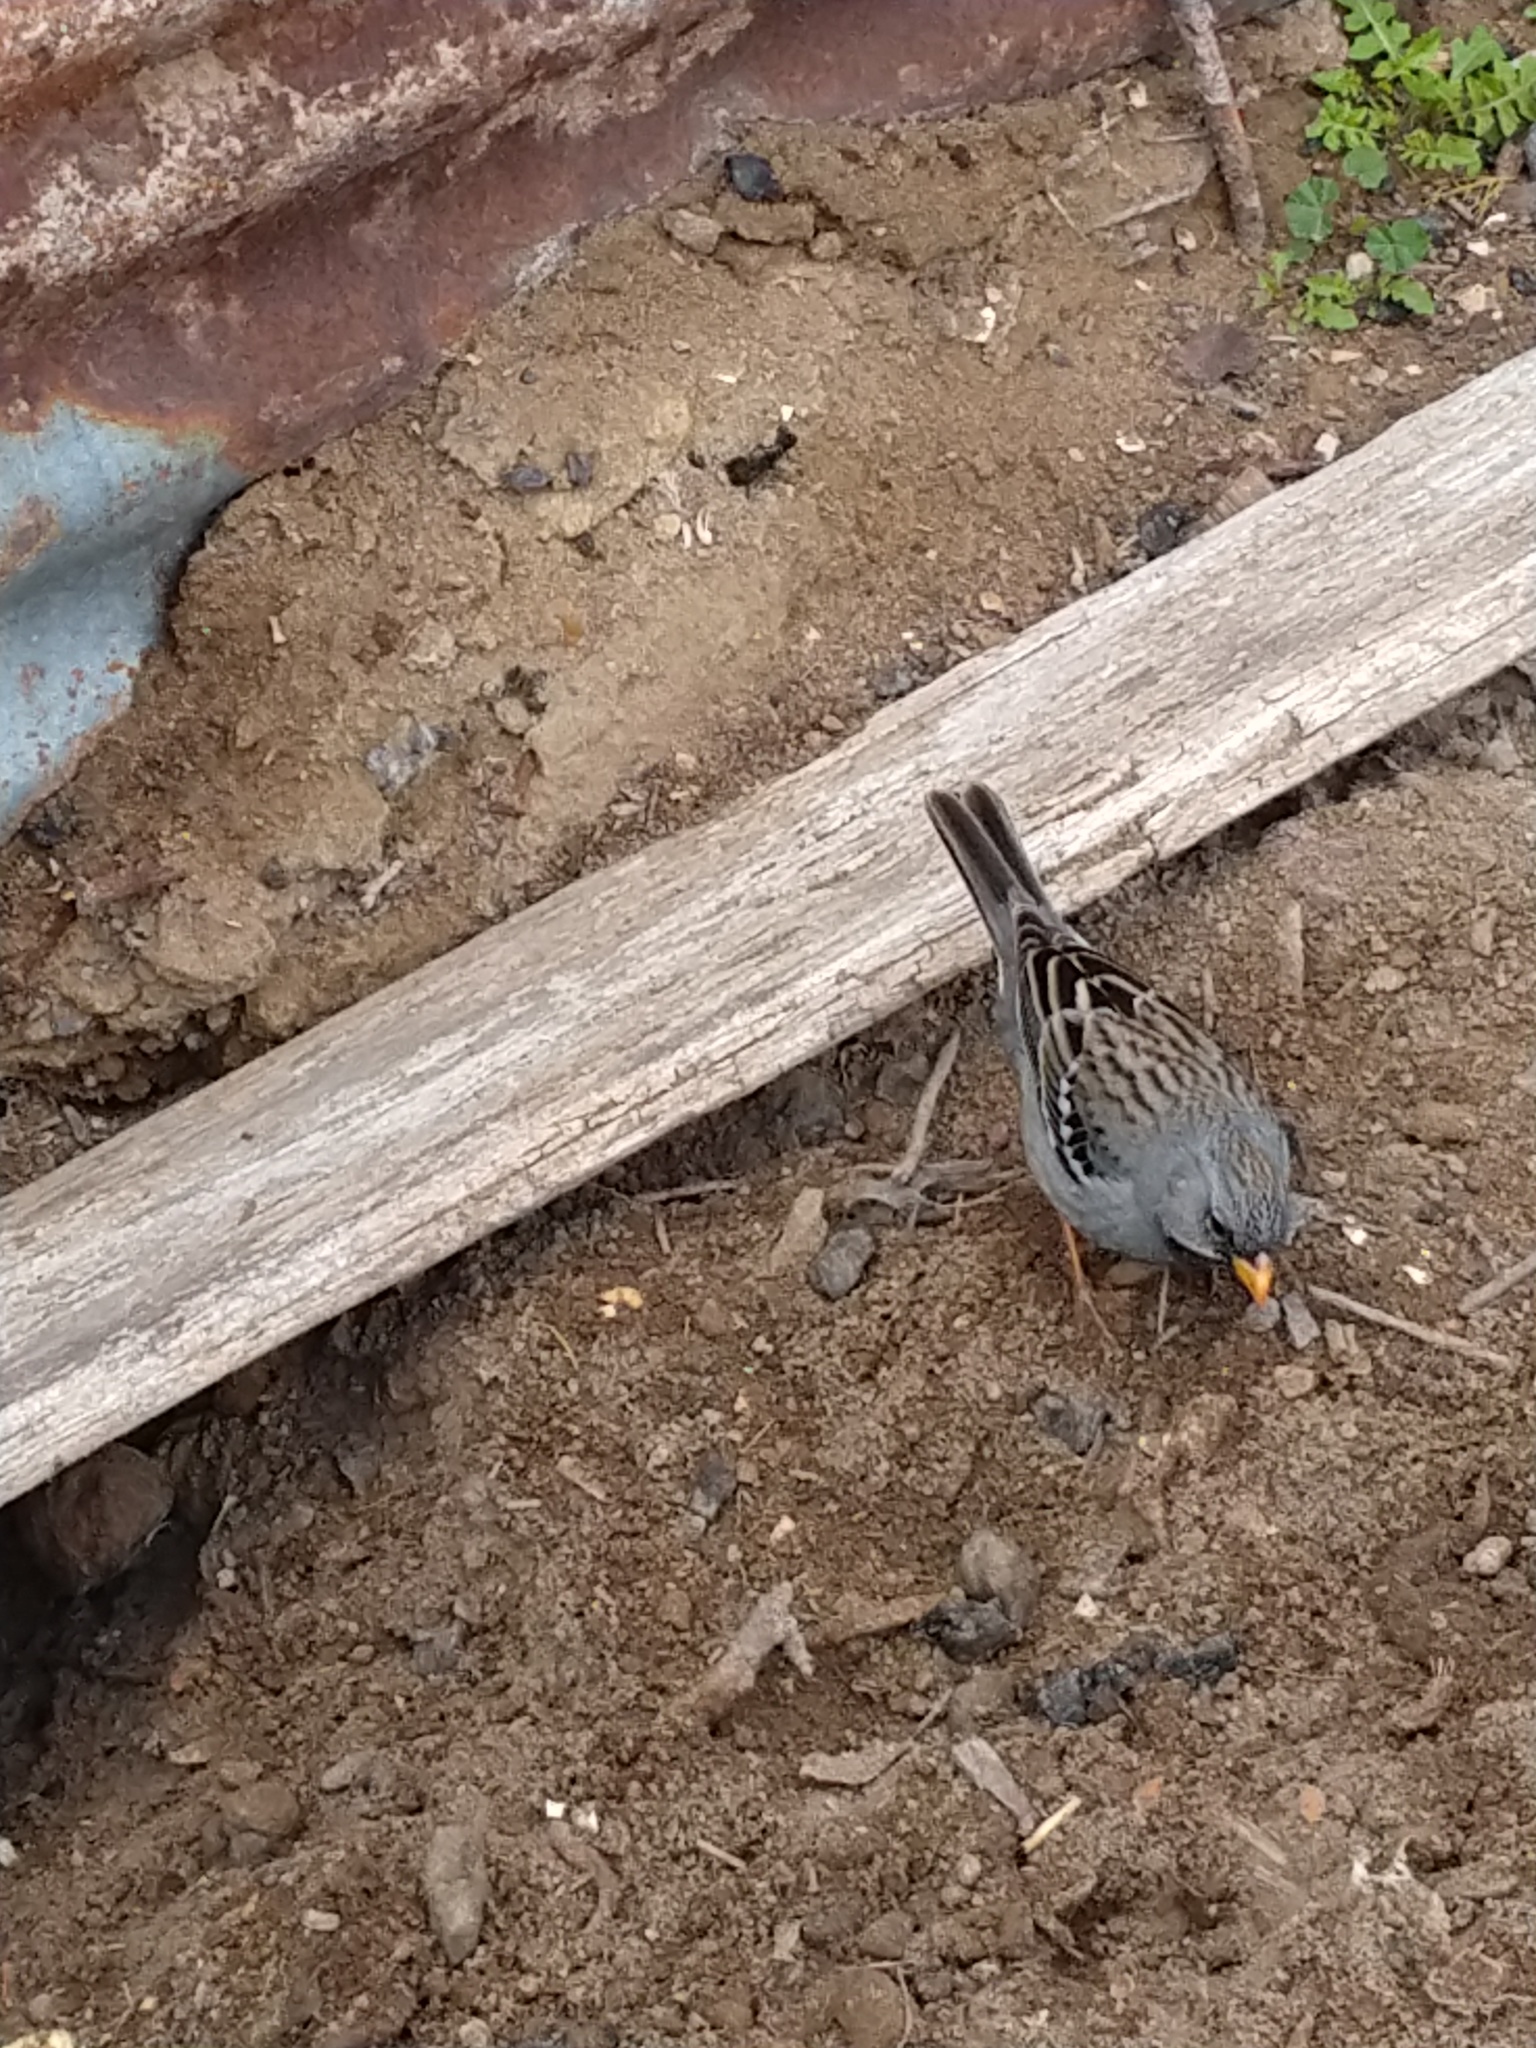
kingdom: Animalia
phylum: Chordata
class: Aves
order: Passeriformes
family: Thraupidae
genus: Rhopospina
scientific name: Rhopospina fruticeti
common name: Mourning sierra finch
